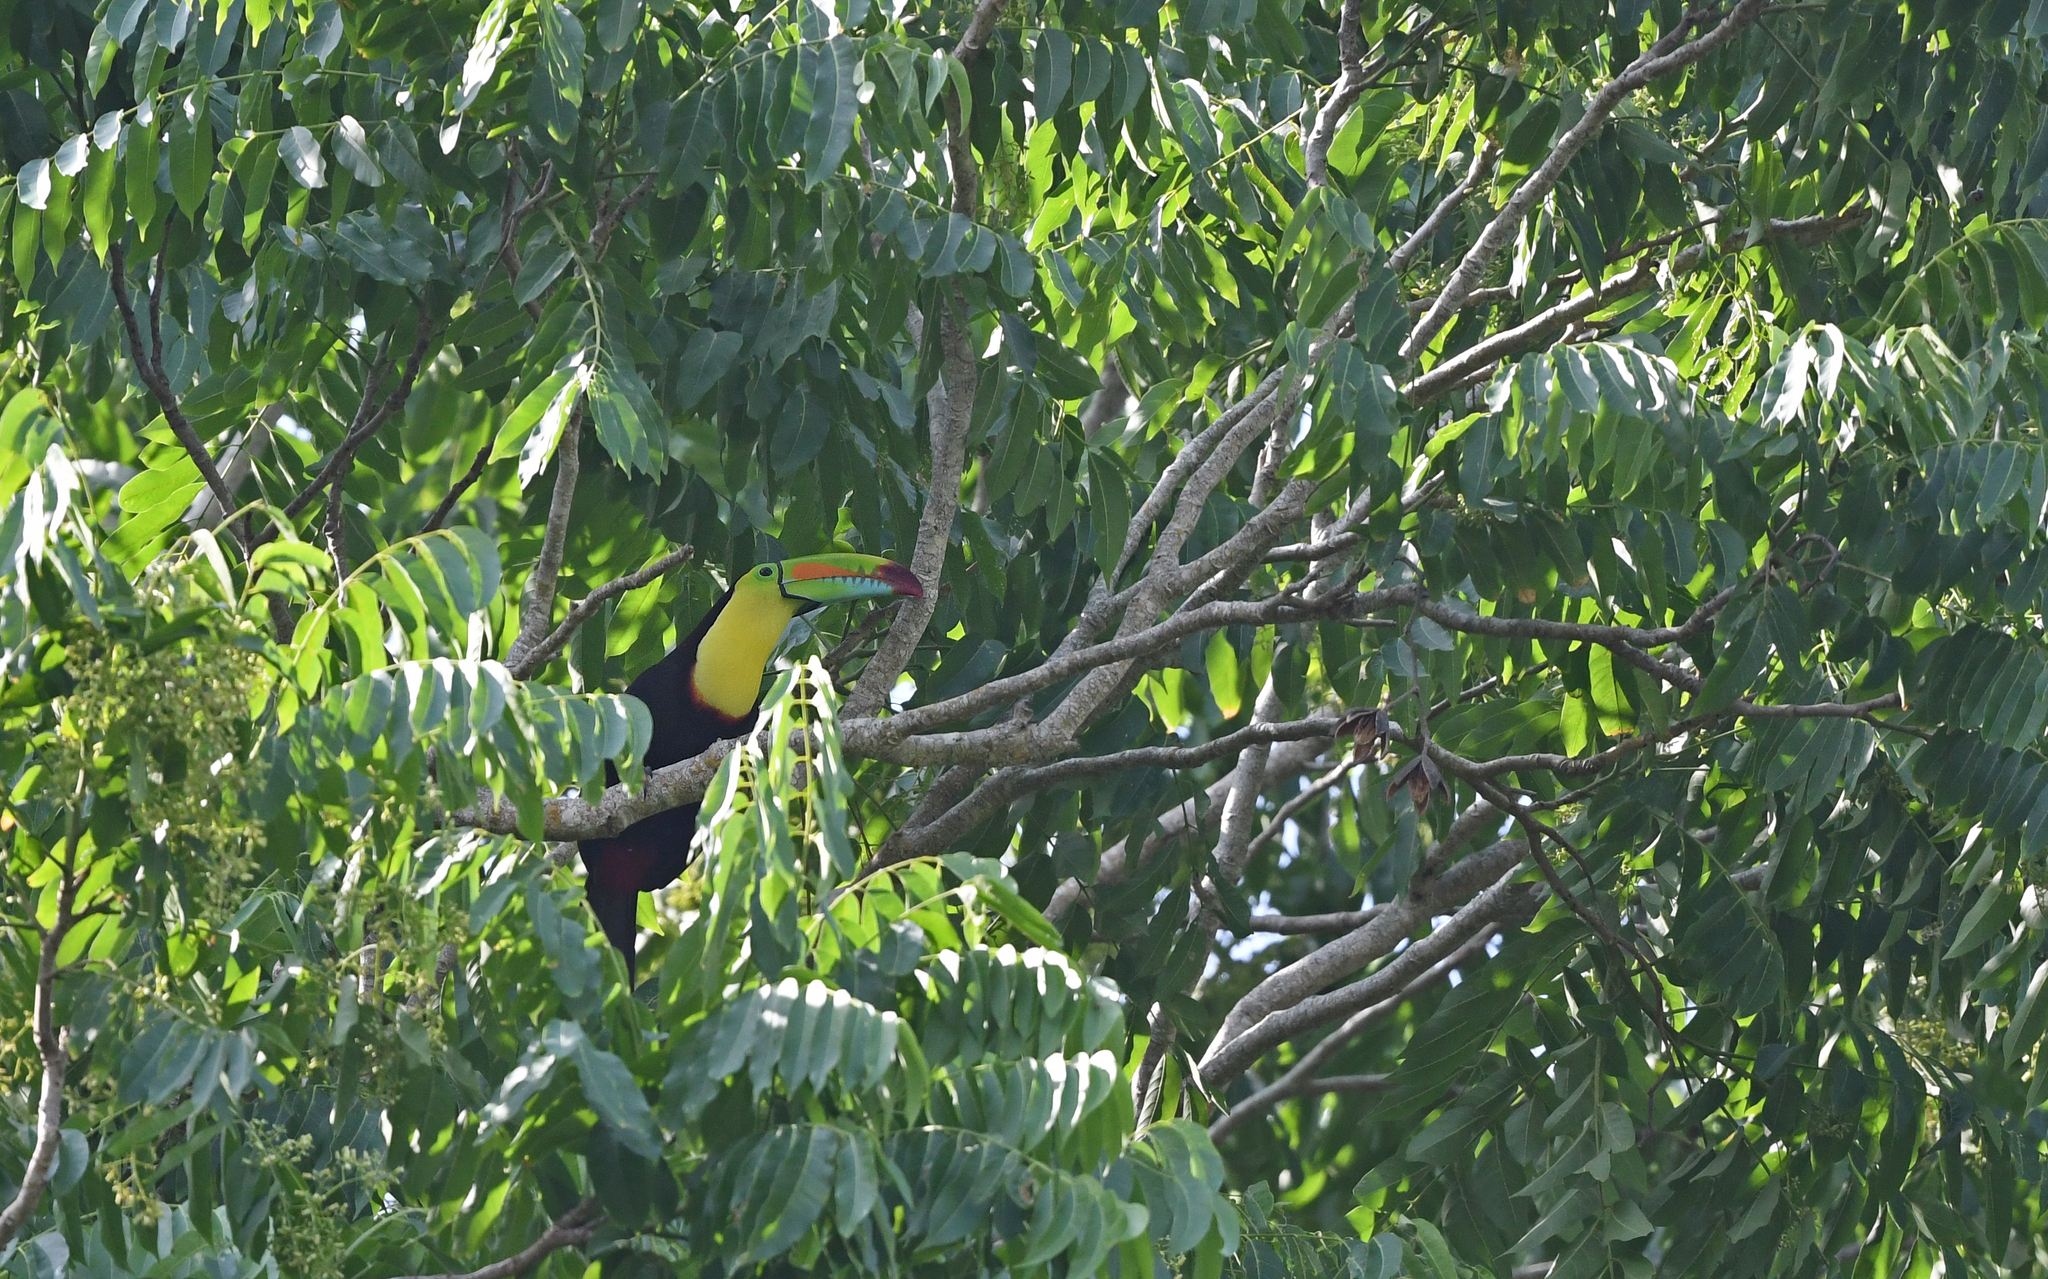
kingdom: Animalia
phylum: Chordata
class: Aves
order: Piciformes
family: Ramphastidae
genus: Ramphastos
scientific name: Ramphastos sulfuratus
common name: Keel-billed toucan
